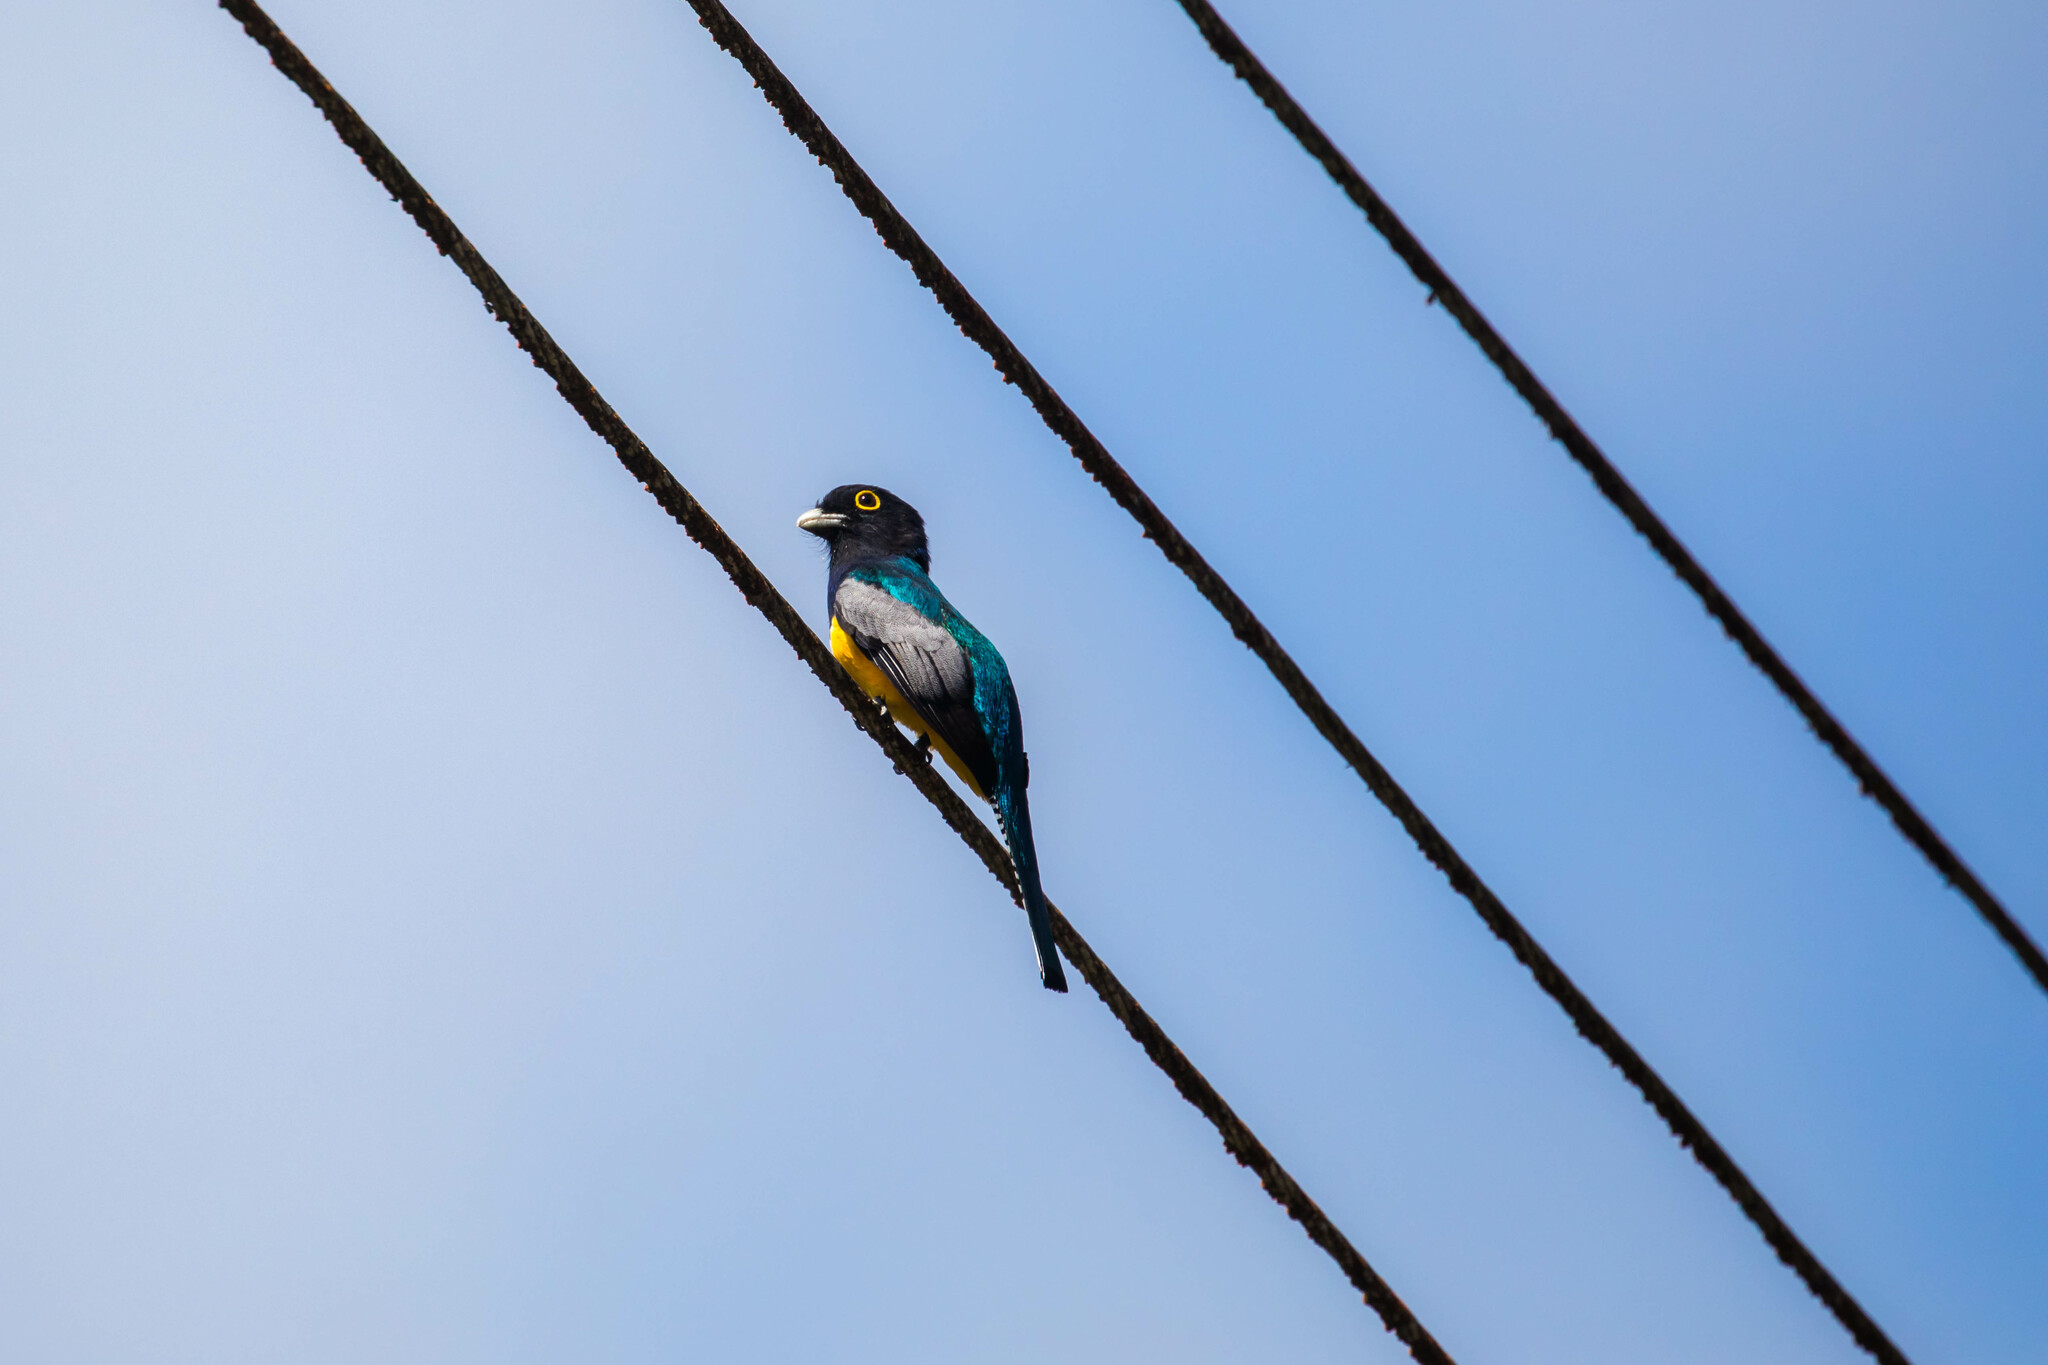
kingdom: Animalia
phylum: Chordata
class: Aves
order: Trogoniformes
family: Trogonidae
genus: Trogon
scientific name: Trogon caligatus
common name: Gartered trogon
